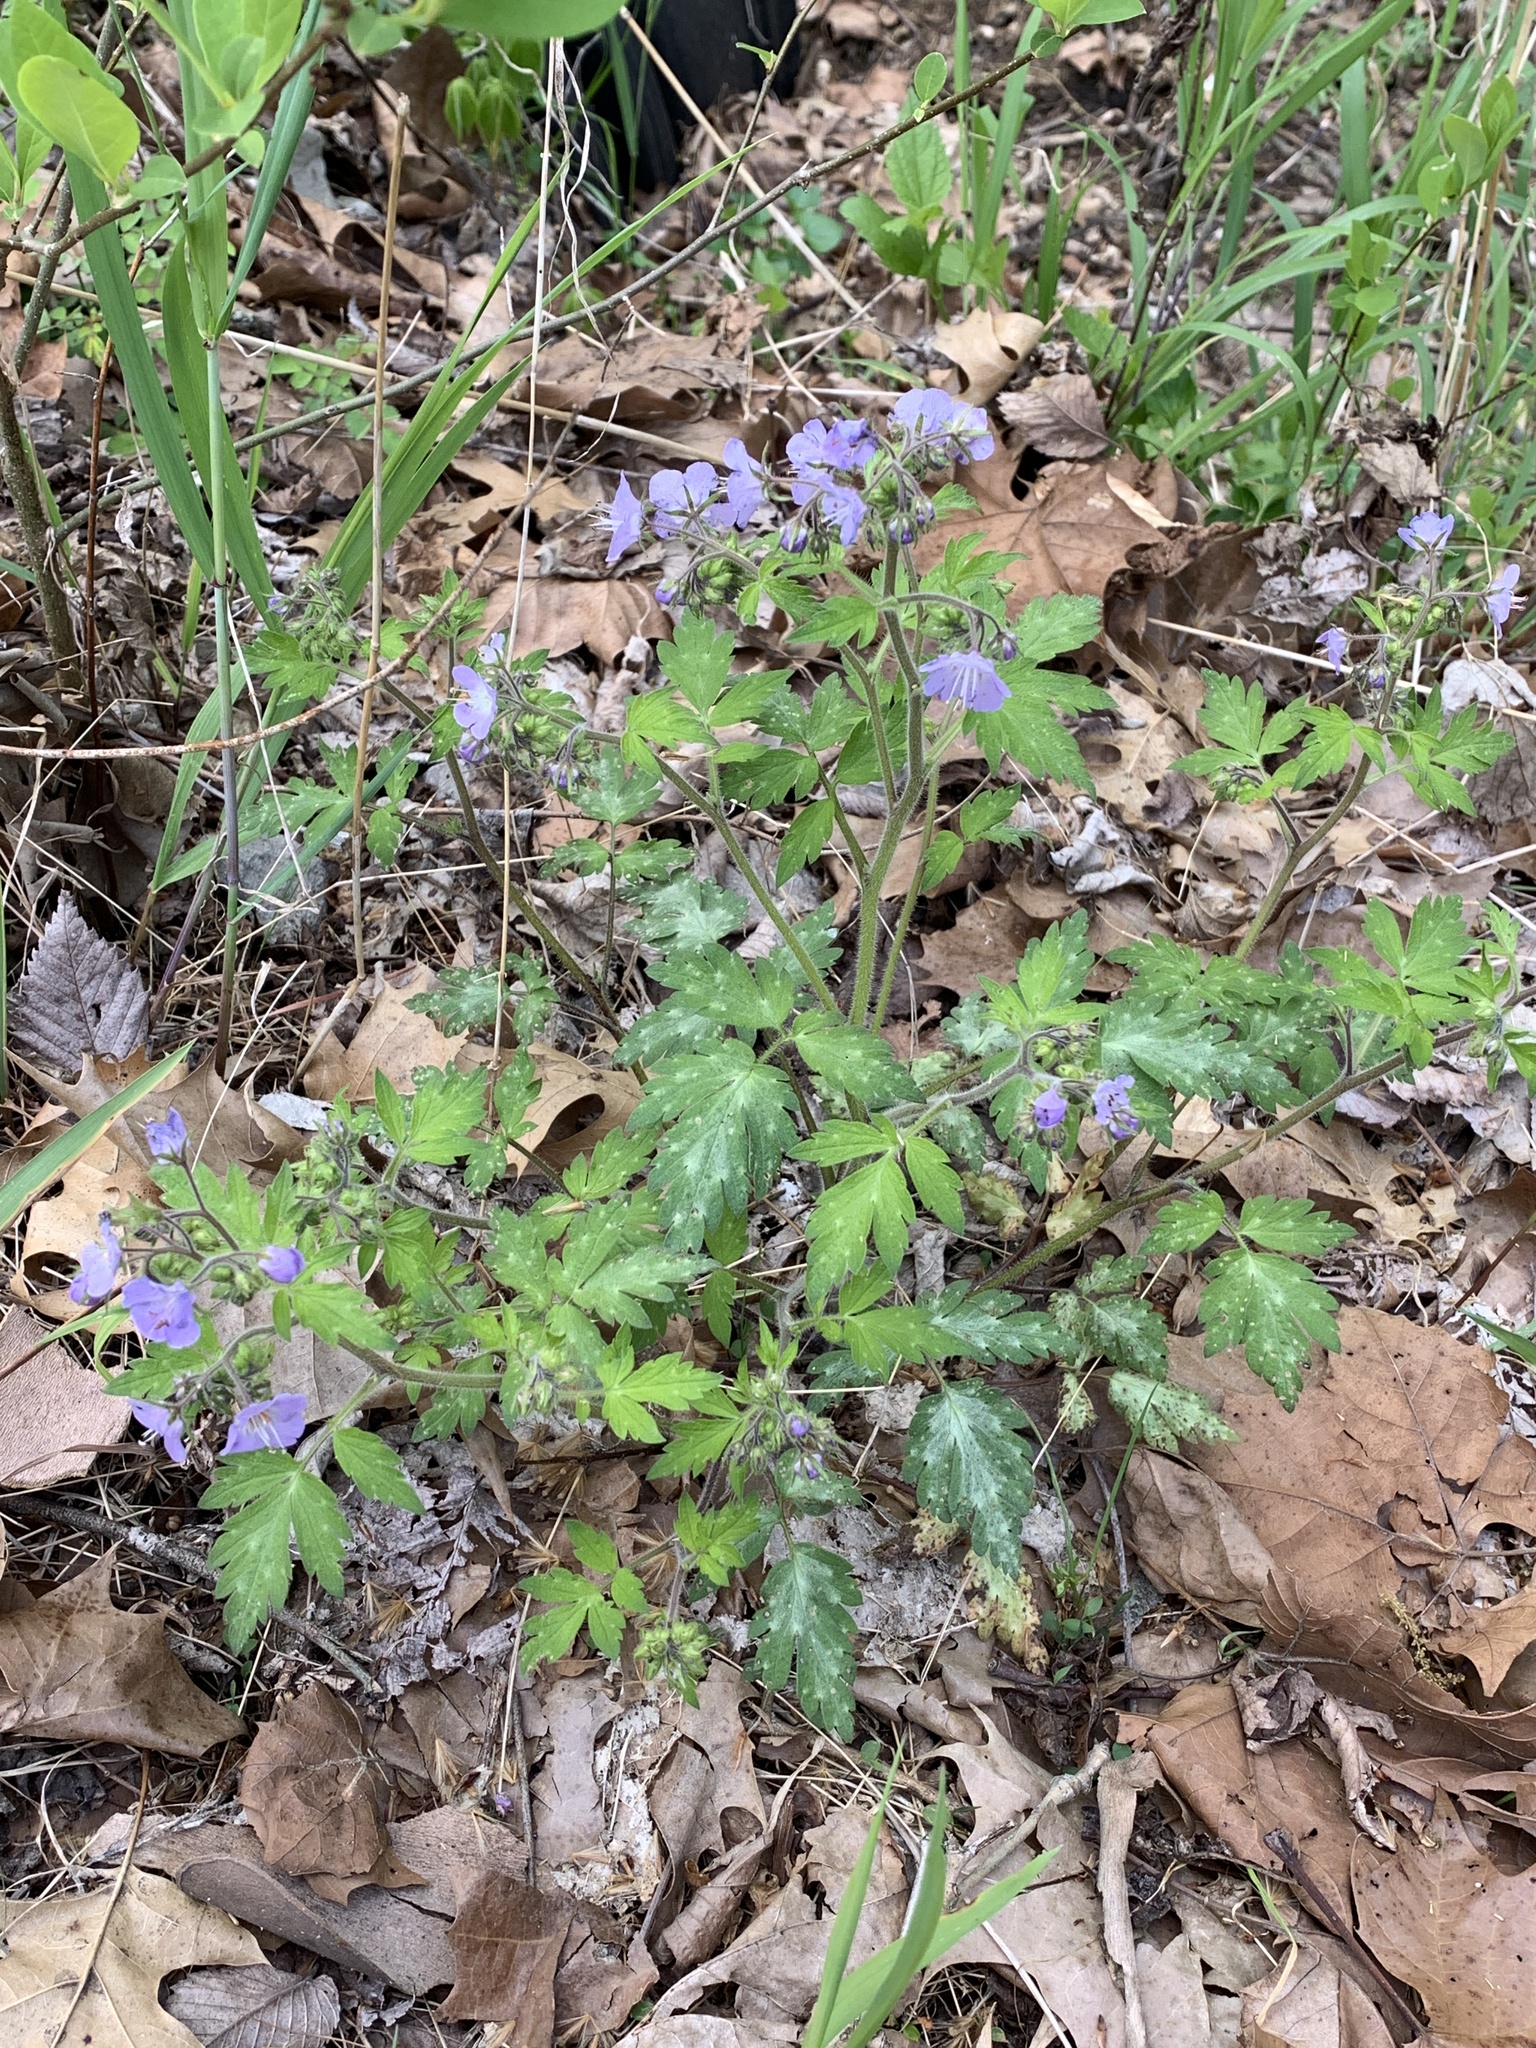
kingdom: Plantae
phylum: Tracheophyta
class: Magnoliopsida
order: Boraginales
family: Hydrophyllaceae
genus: Phacelia
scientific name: Phacelia bipinnatifida
